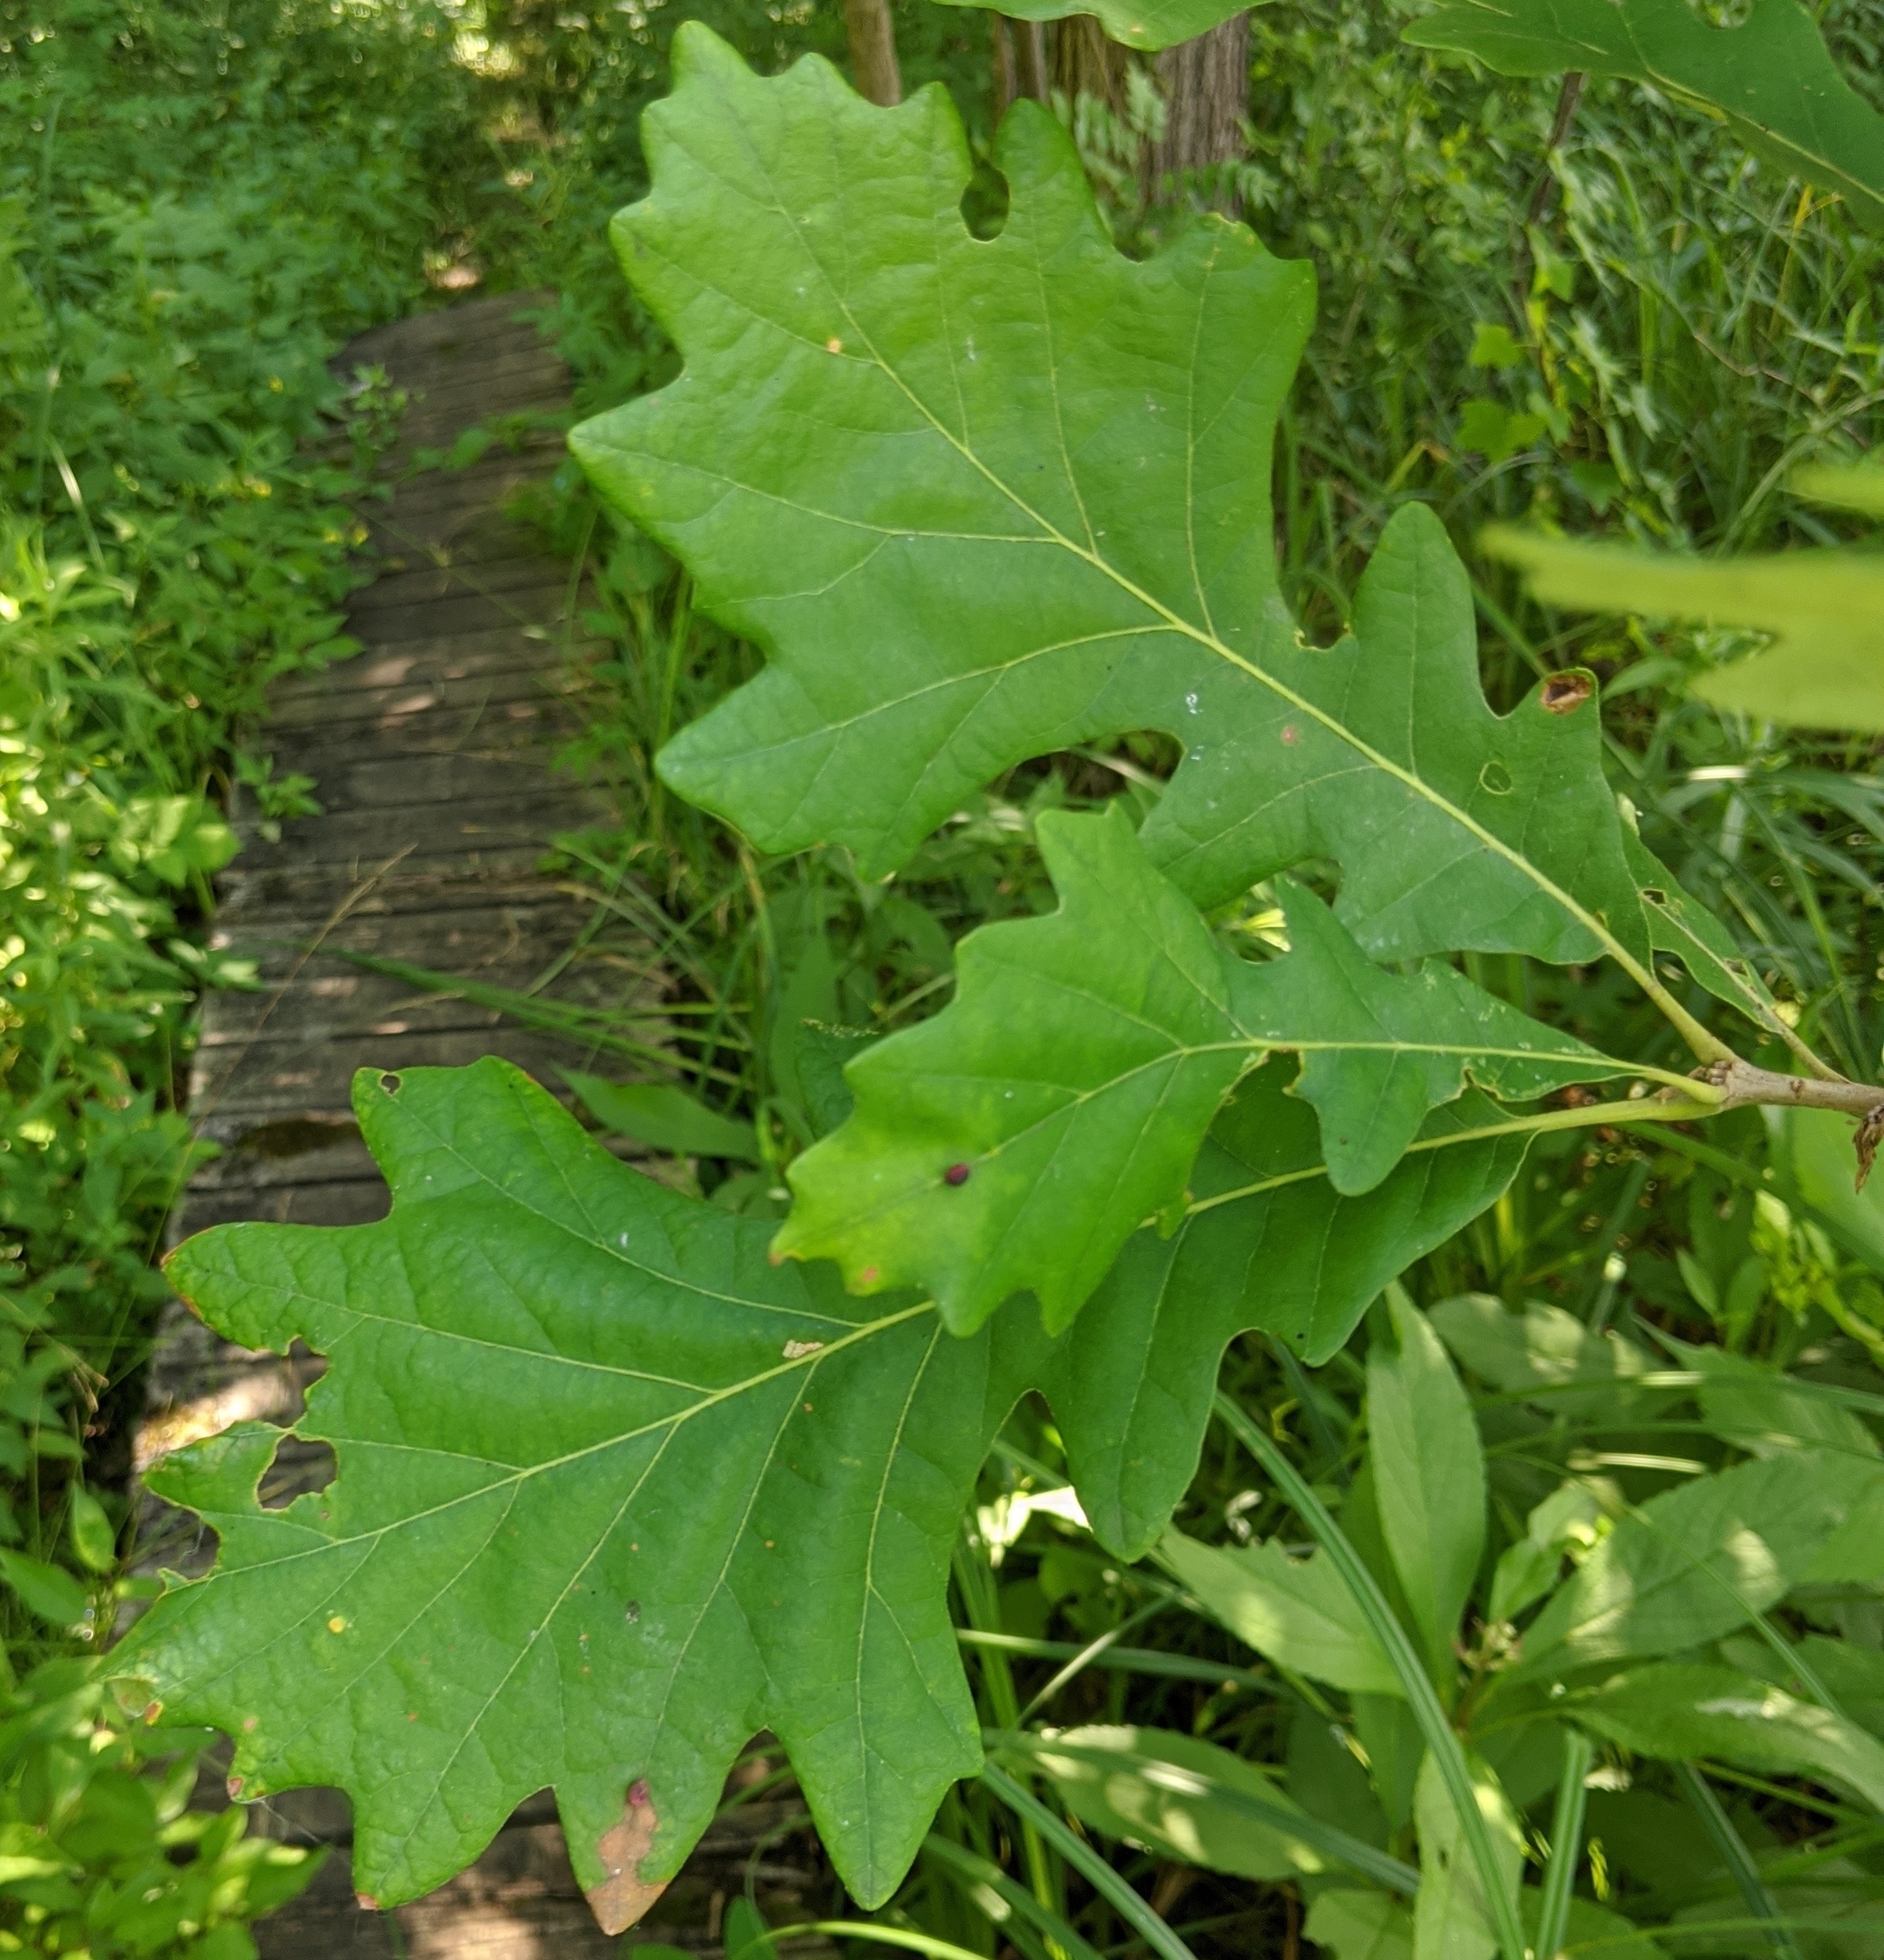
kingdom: Plantae
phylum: Tracheophyta
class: Magnoliopsida
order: Fagales
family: Fagaceae
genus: Quercus
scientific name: Quercus macrocarpa
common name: Bur oak
